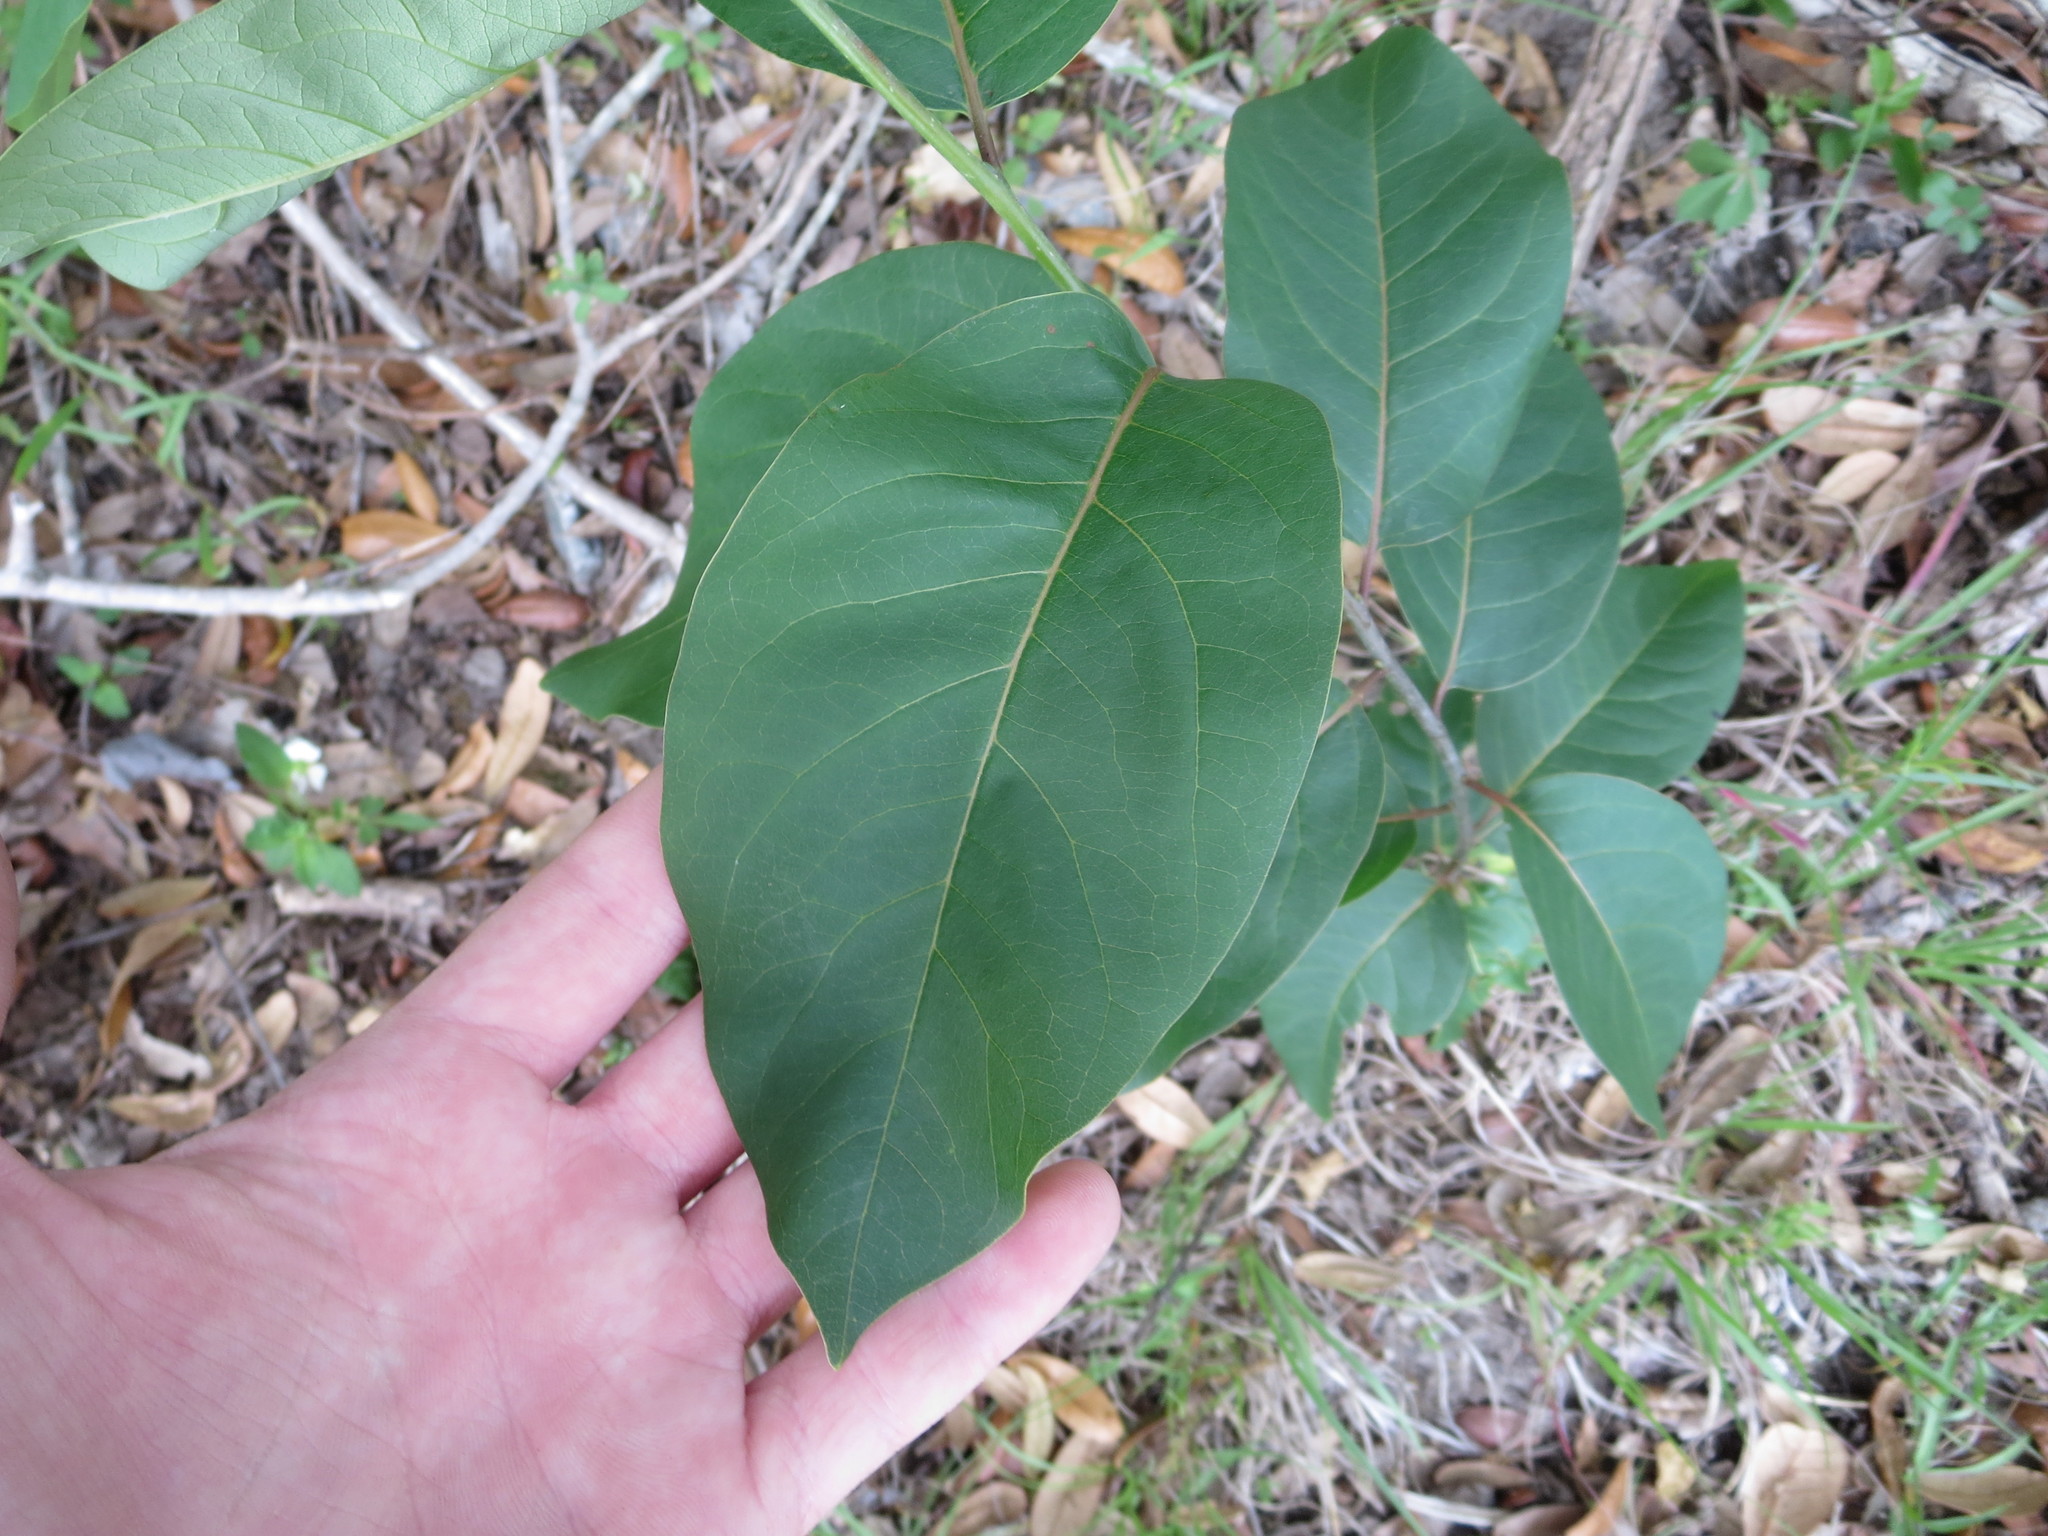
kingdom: Plantae
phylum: Tracheophyta
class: Magnoliopsida
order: Ericales
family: Ebenaceae
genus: Diospyros
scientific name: Diospyros virginiana
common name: Persimmon
